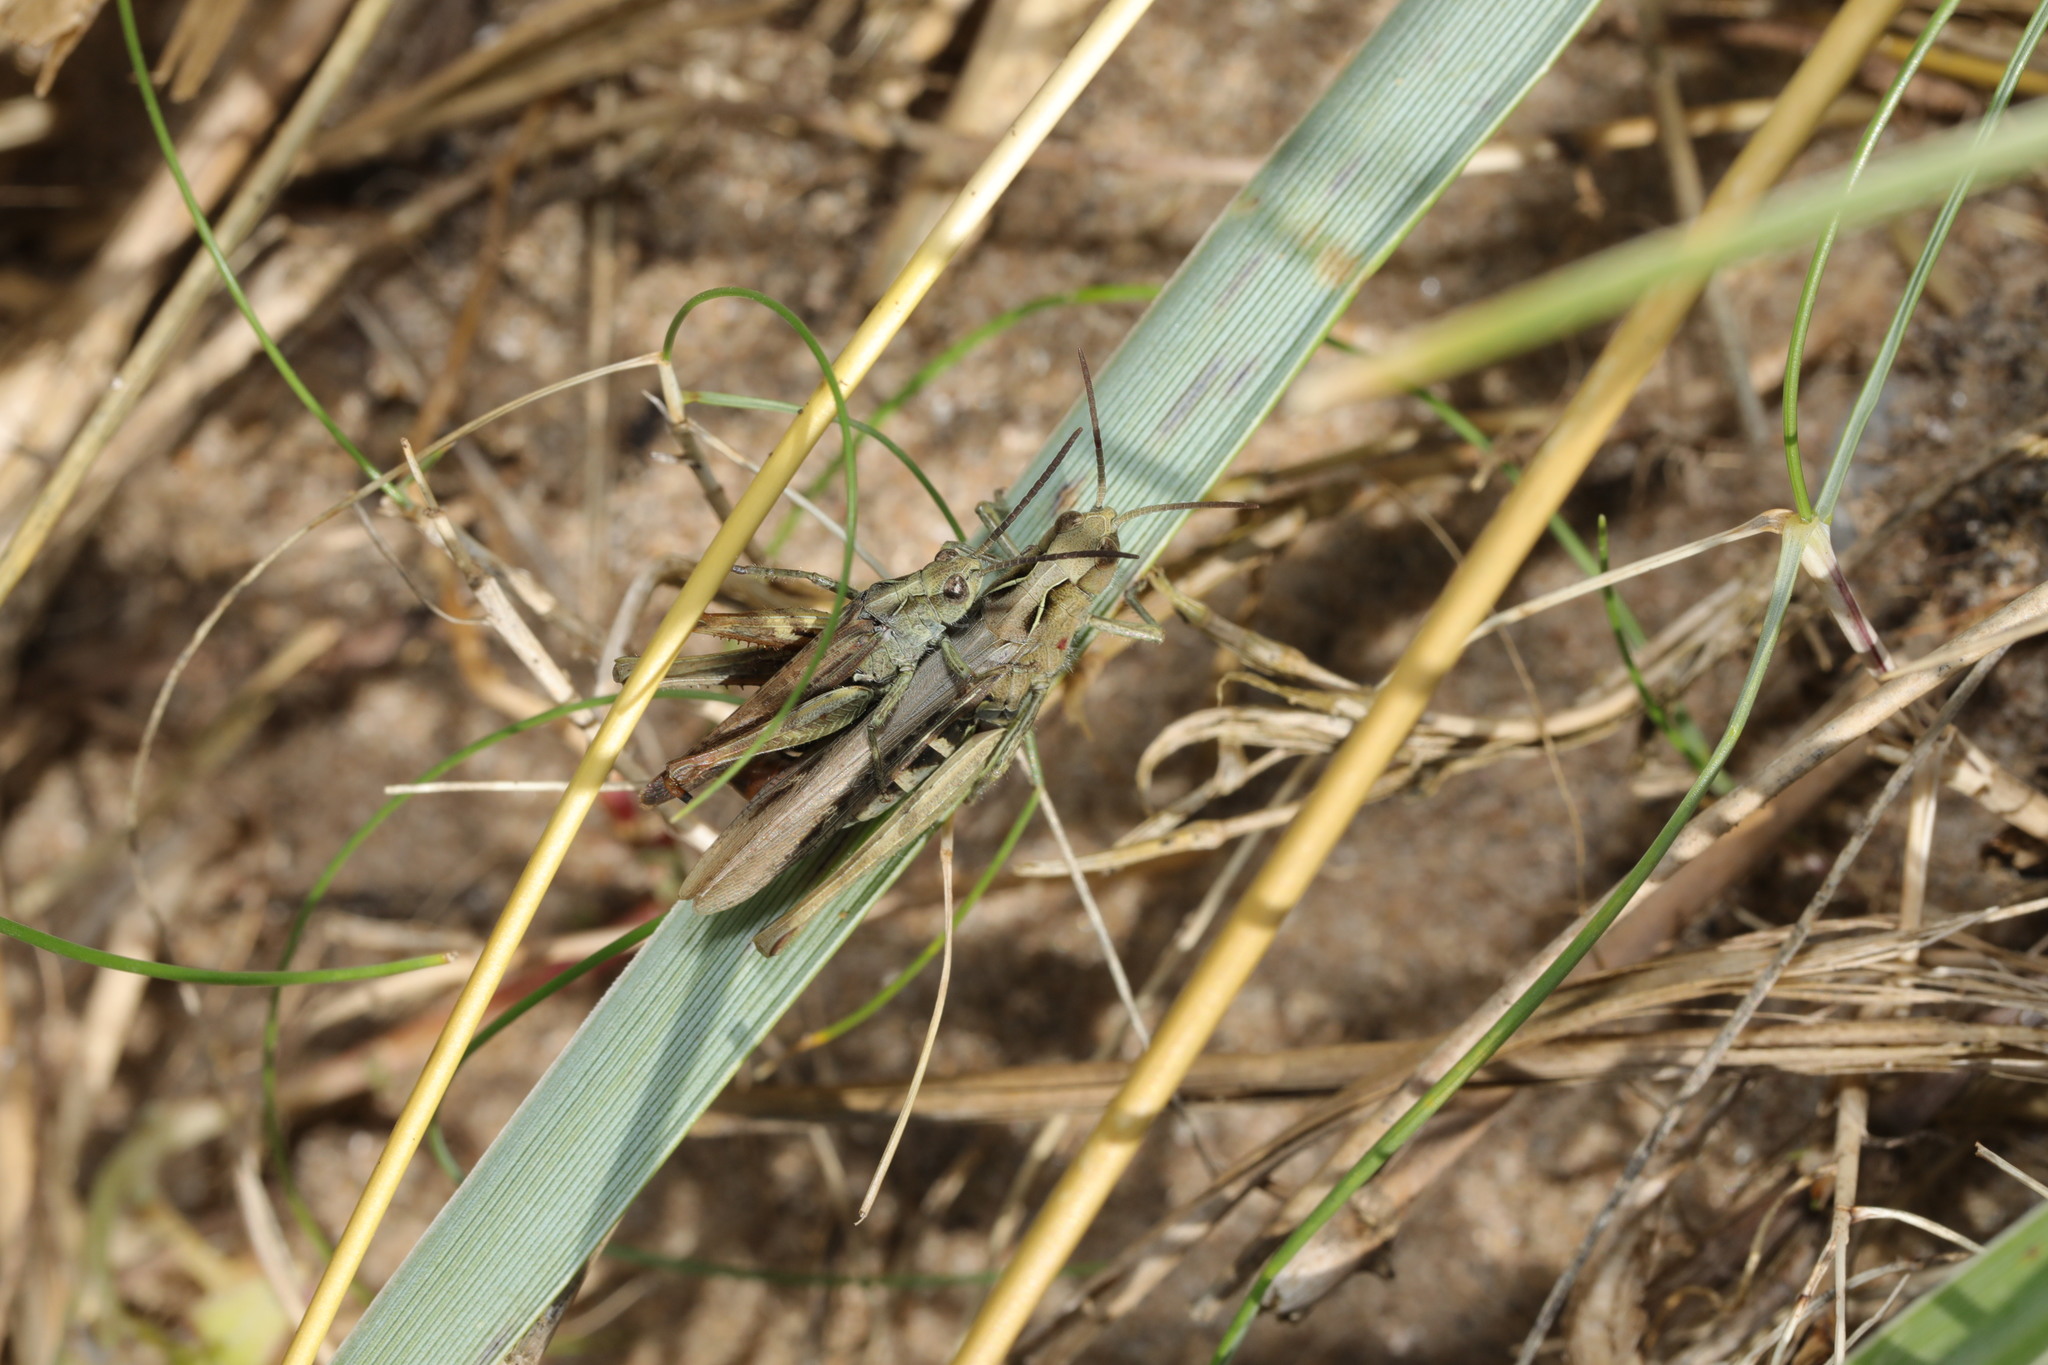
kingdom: Animalia
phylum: Arthropoda
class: Insecta
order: Orthoptera
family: Acrididae
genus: Chorthippus
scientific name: Chorthippus brunneus
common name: Field grasshopper
